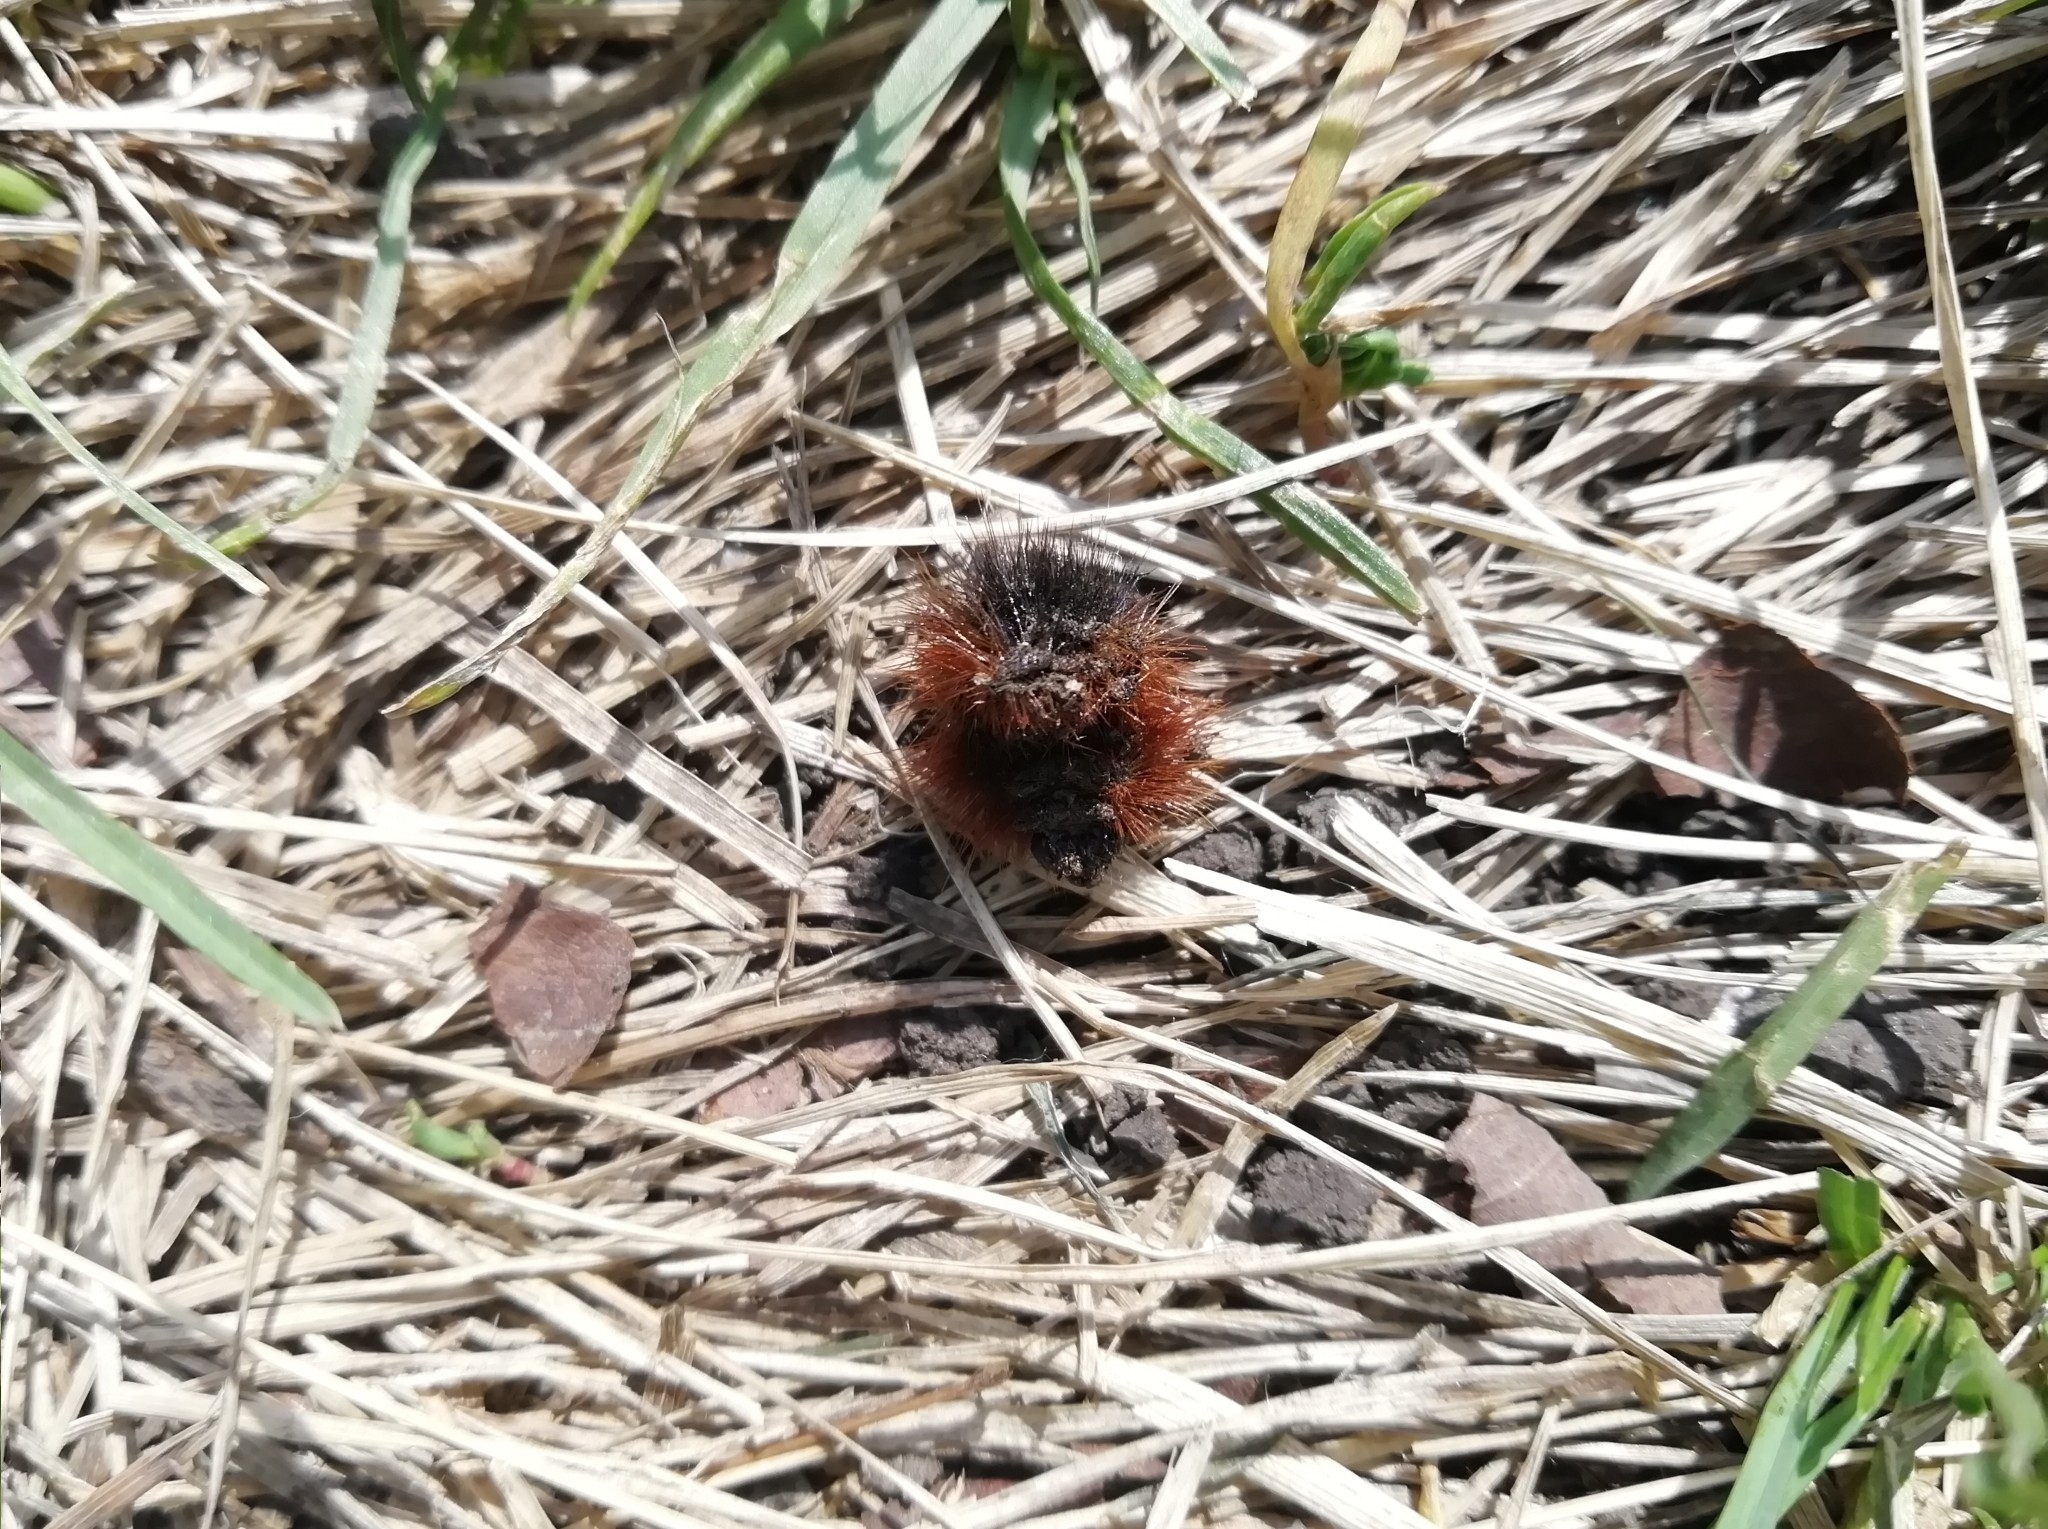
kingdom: Animalia
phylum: Arthropoda
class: Insecta
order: Lepidoptera
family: Erebidae
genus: Arctia
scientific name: Arctia caja
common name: Garden tiger
